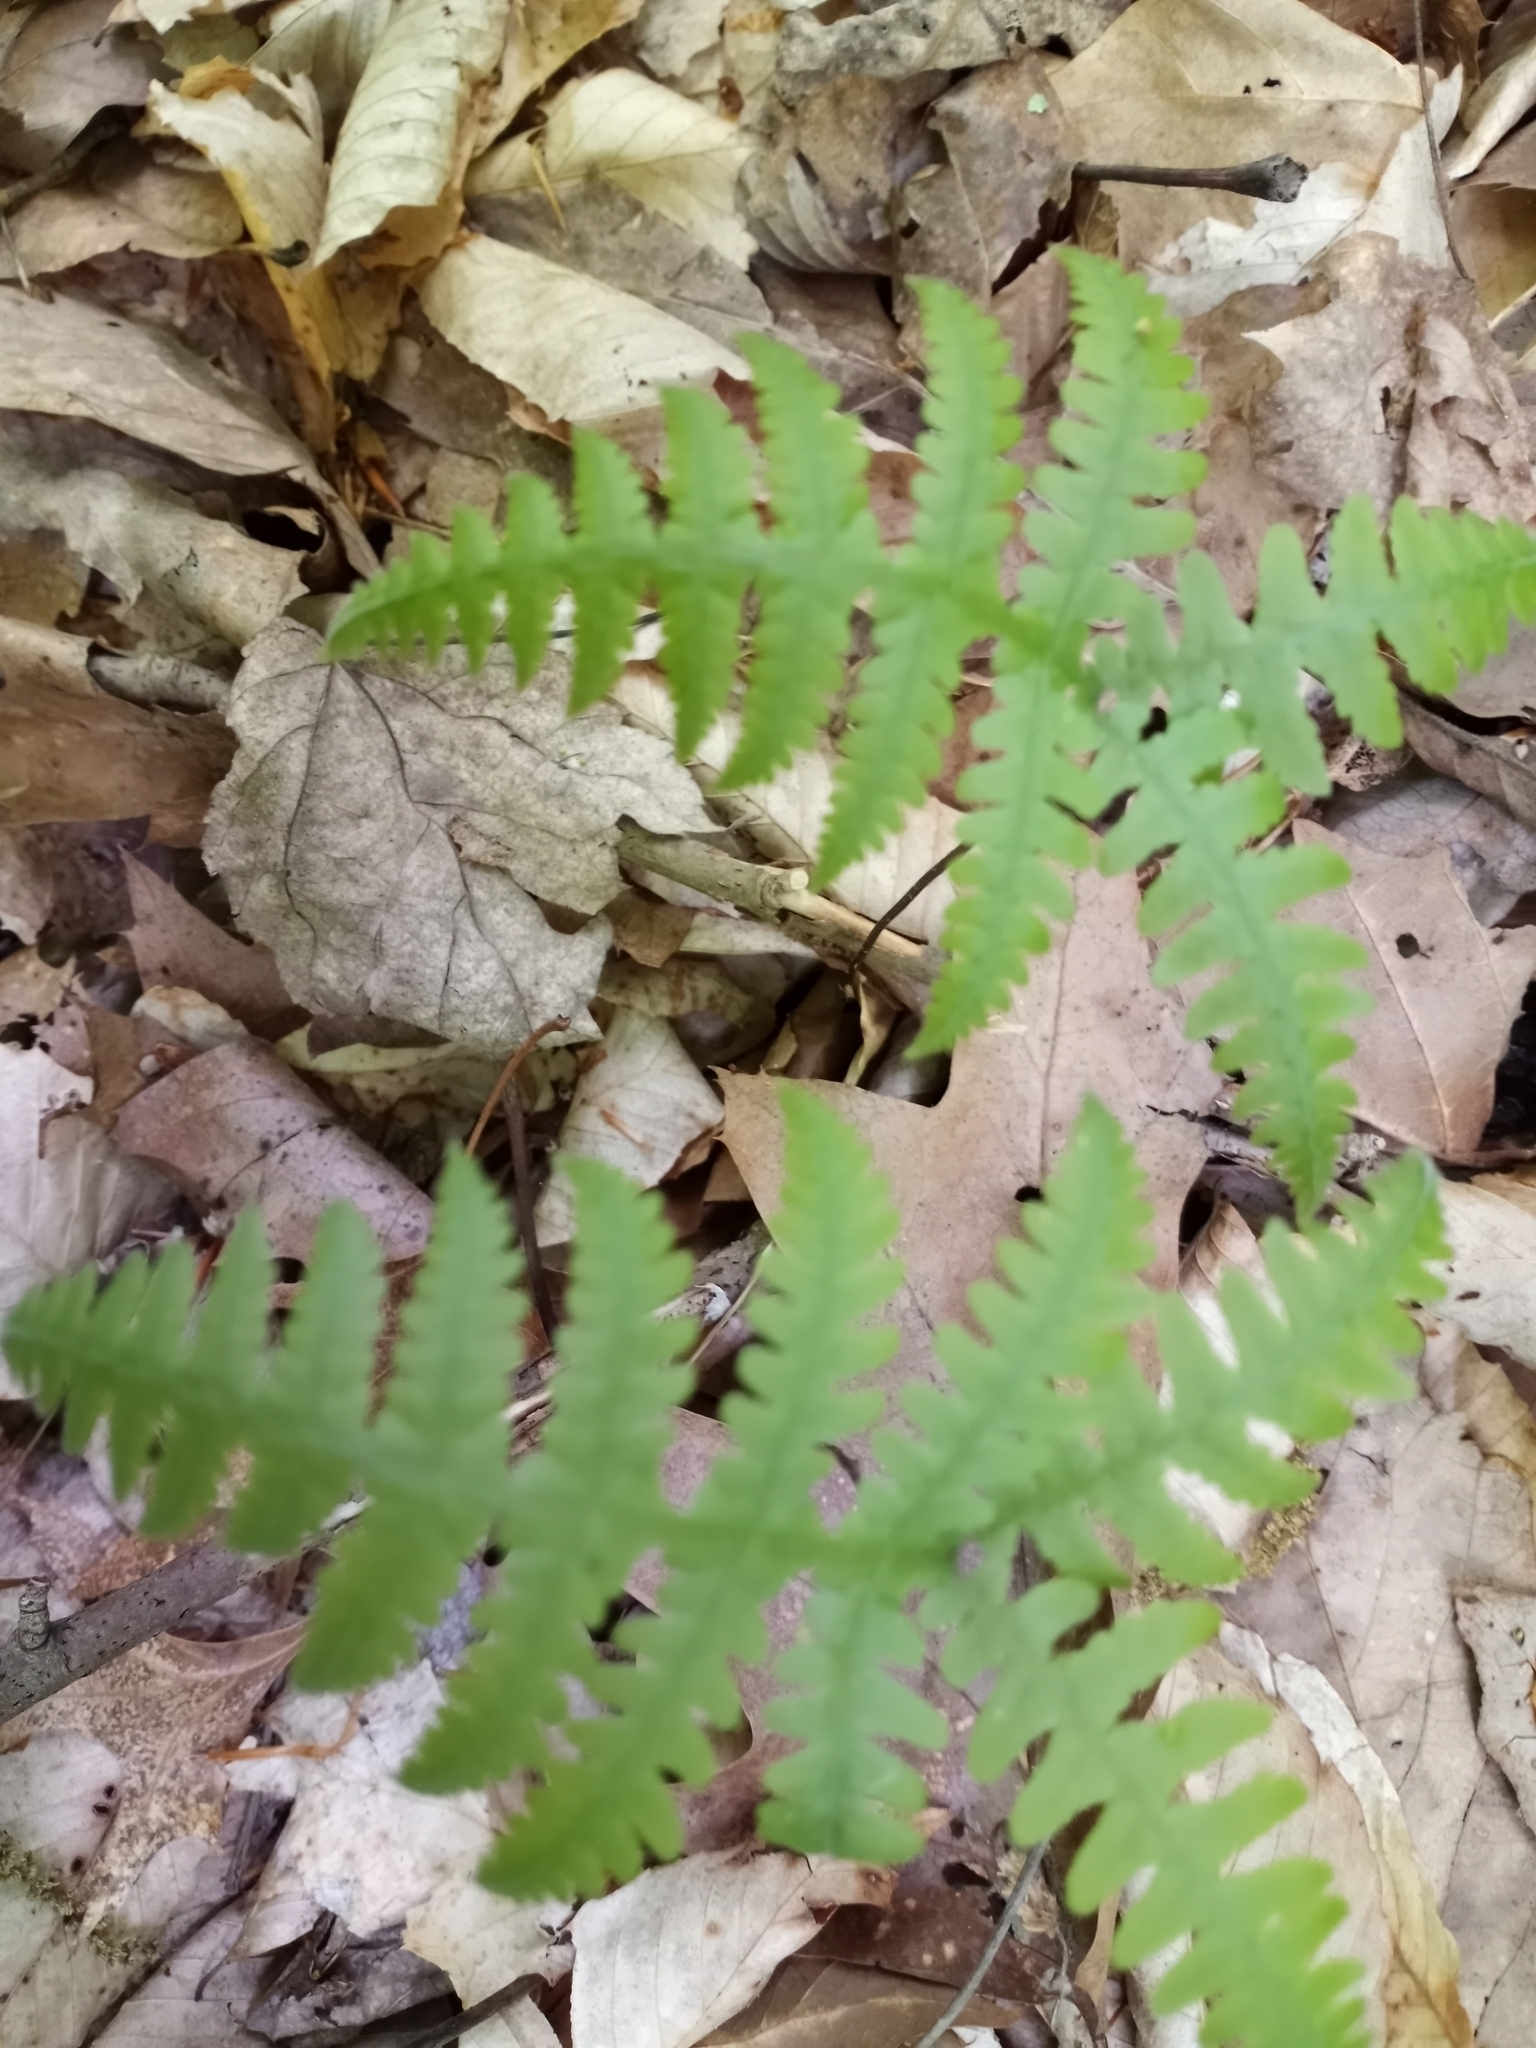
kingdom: Plantae
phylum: Tracheophyta
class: Polypodiopsida
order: Polypodiales
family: Thelypteridaceae
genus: Phegopteris
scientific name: Phegopteris hexagonoptera
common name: Broad beech fern
